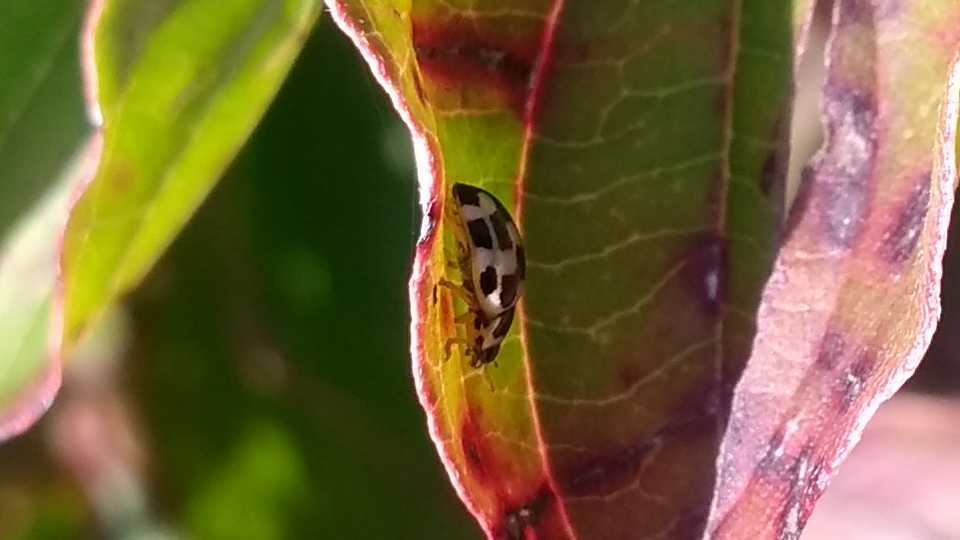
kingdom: Animalia
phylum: Arthropoda
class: Insecta
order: Coleoptera
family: Coccinellidae
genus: Propylaea
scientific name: Propylaea quatuordecimpunctata
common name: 14-spotted ladybird beetle
